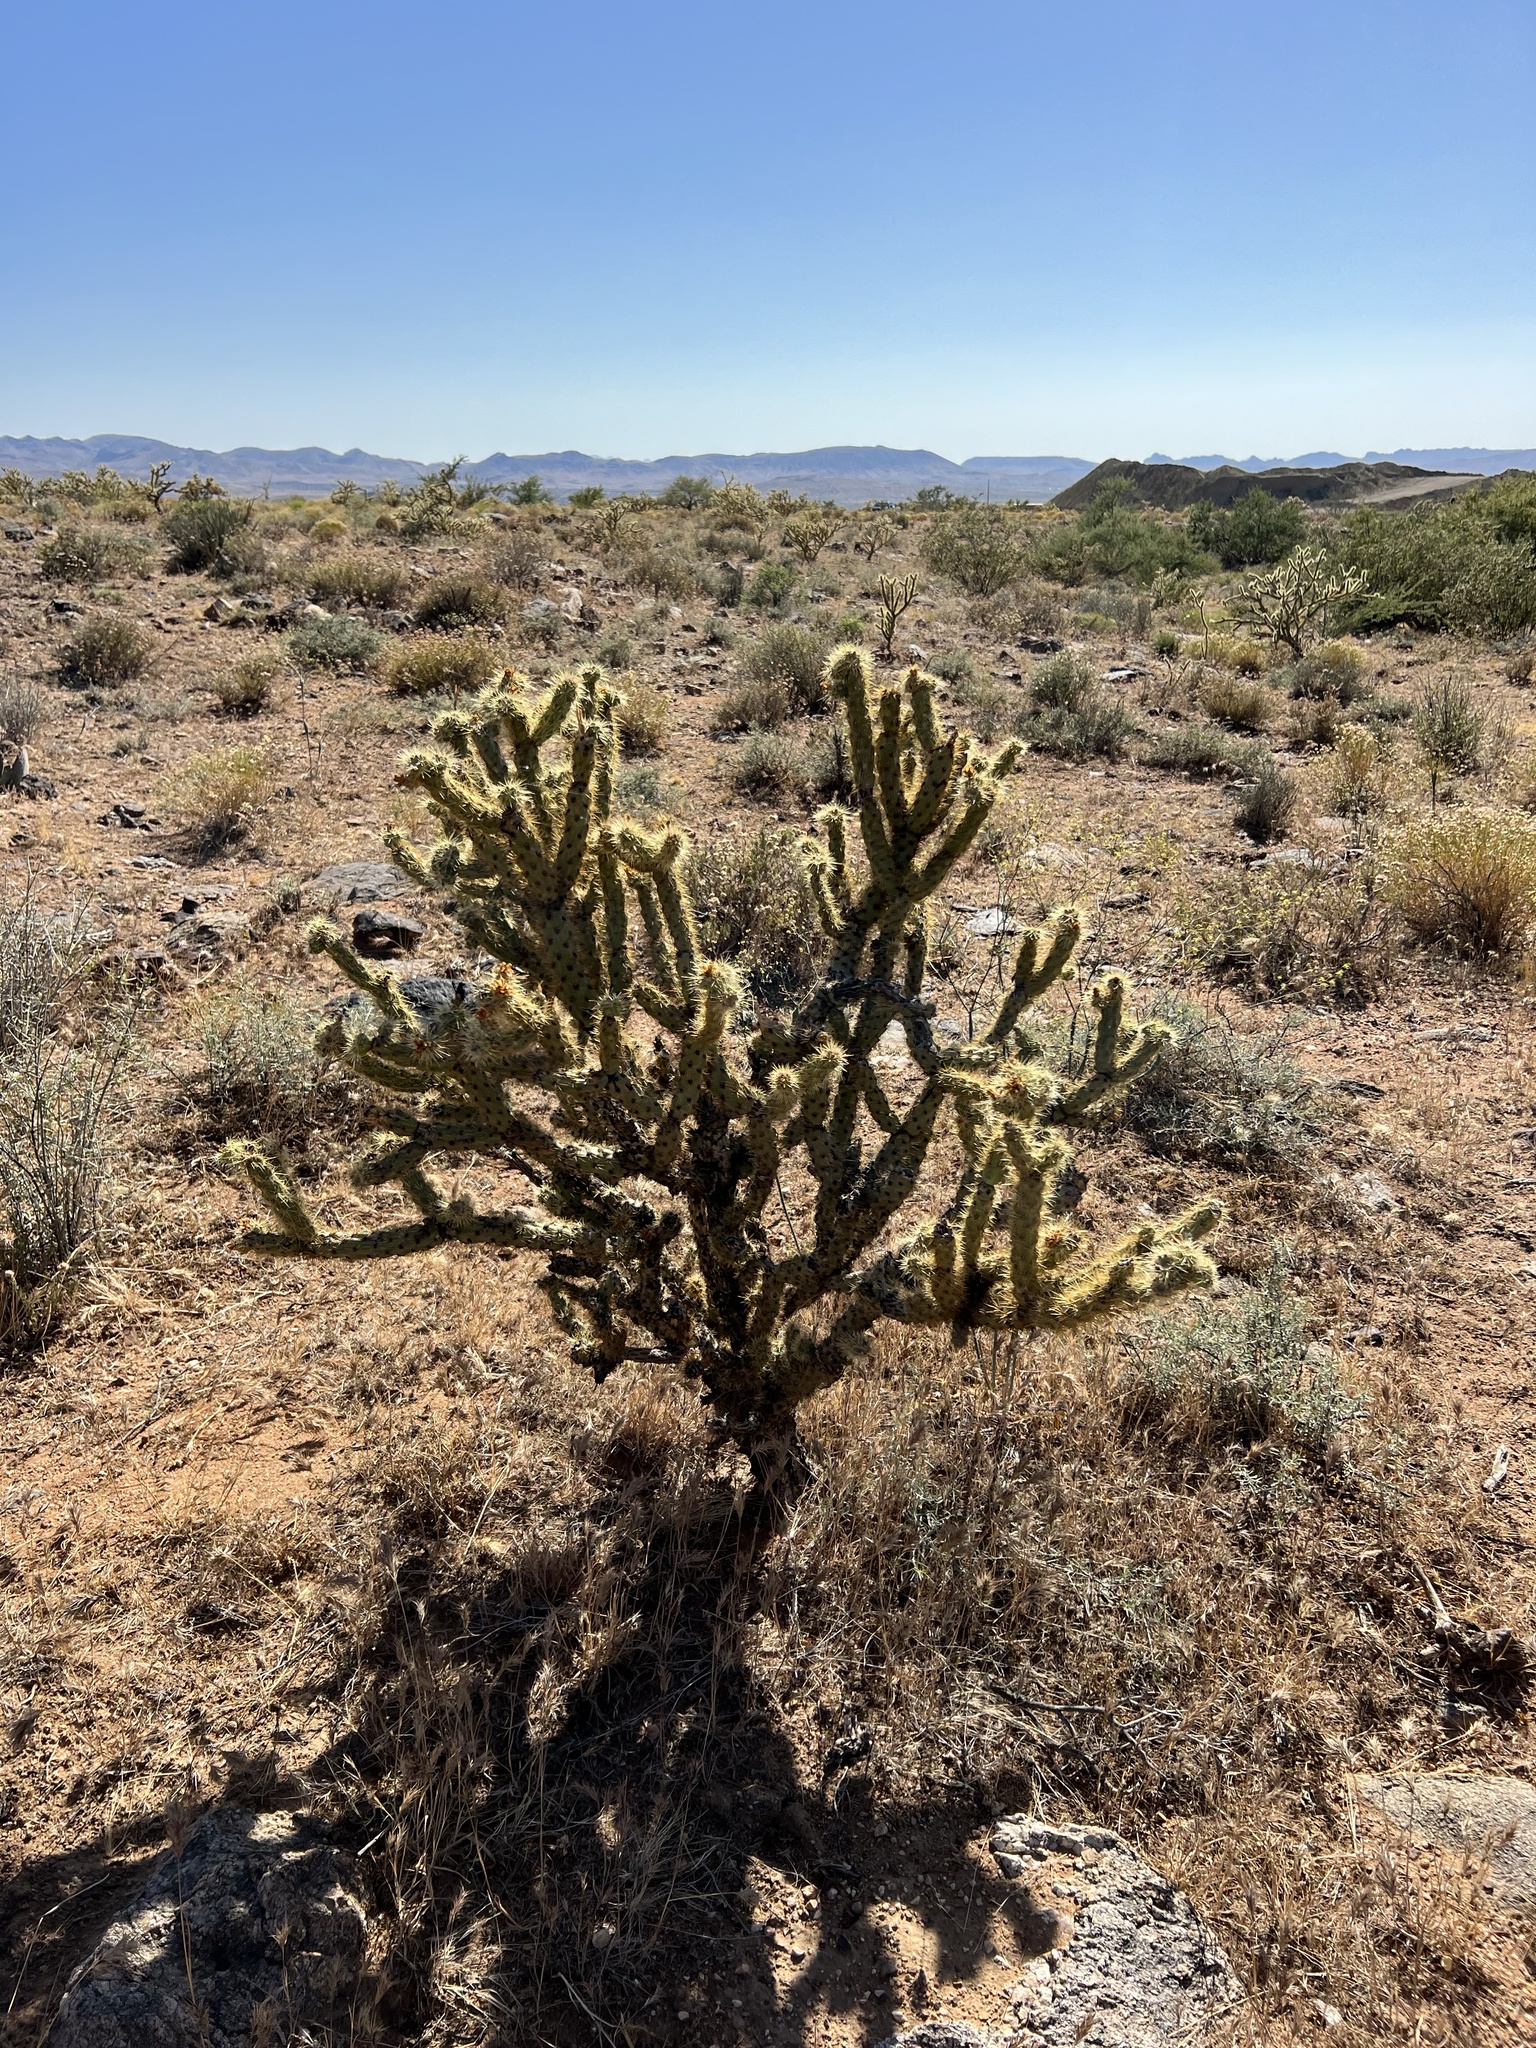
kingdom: Plantae
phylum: Tracheophyta
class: Magnoliopsida
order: Caryophyllales
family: Cactaceae
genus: Cylindropuntia
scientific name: Cylindropuntia acanthocarpa
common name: Buckhorn cholla
